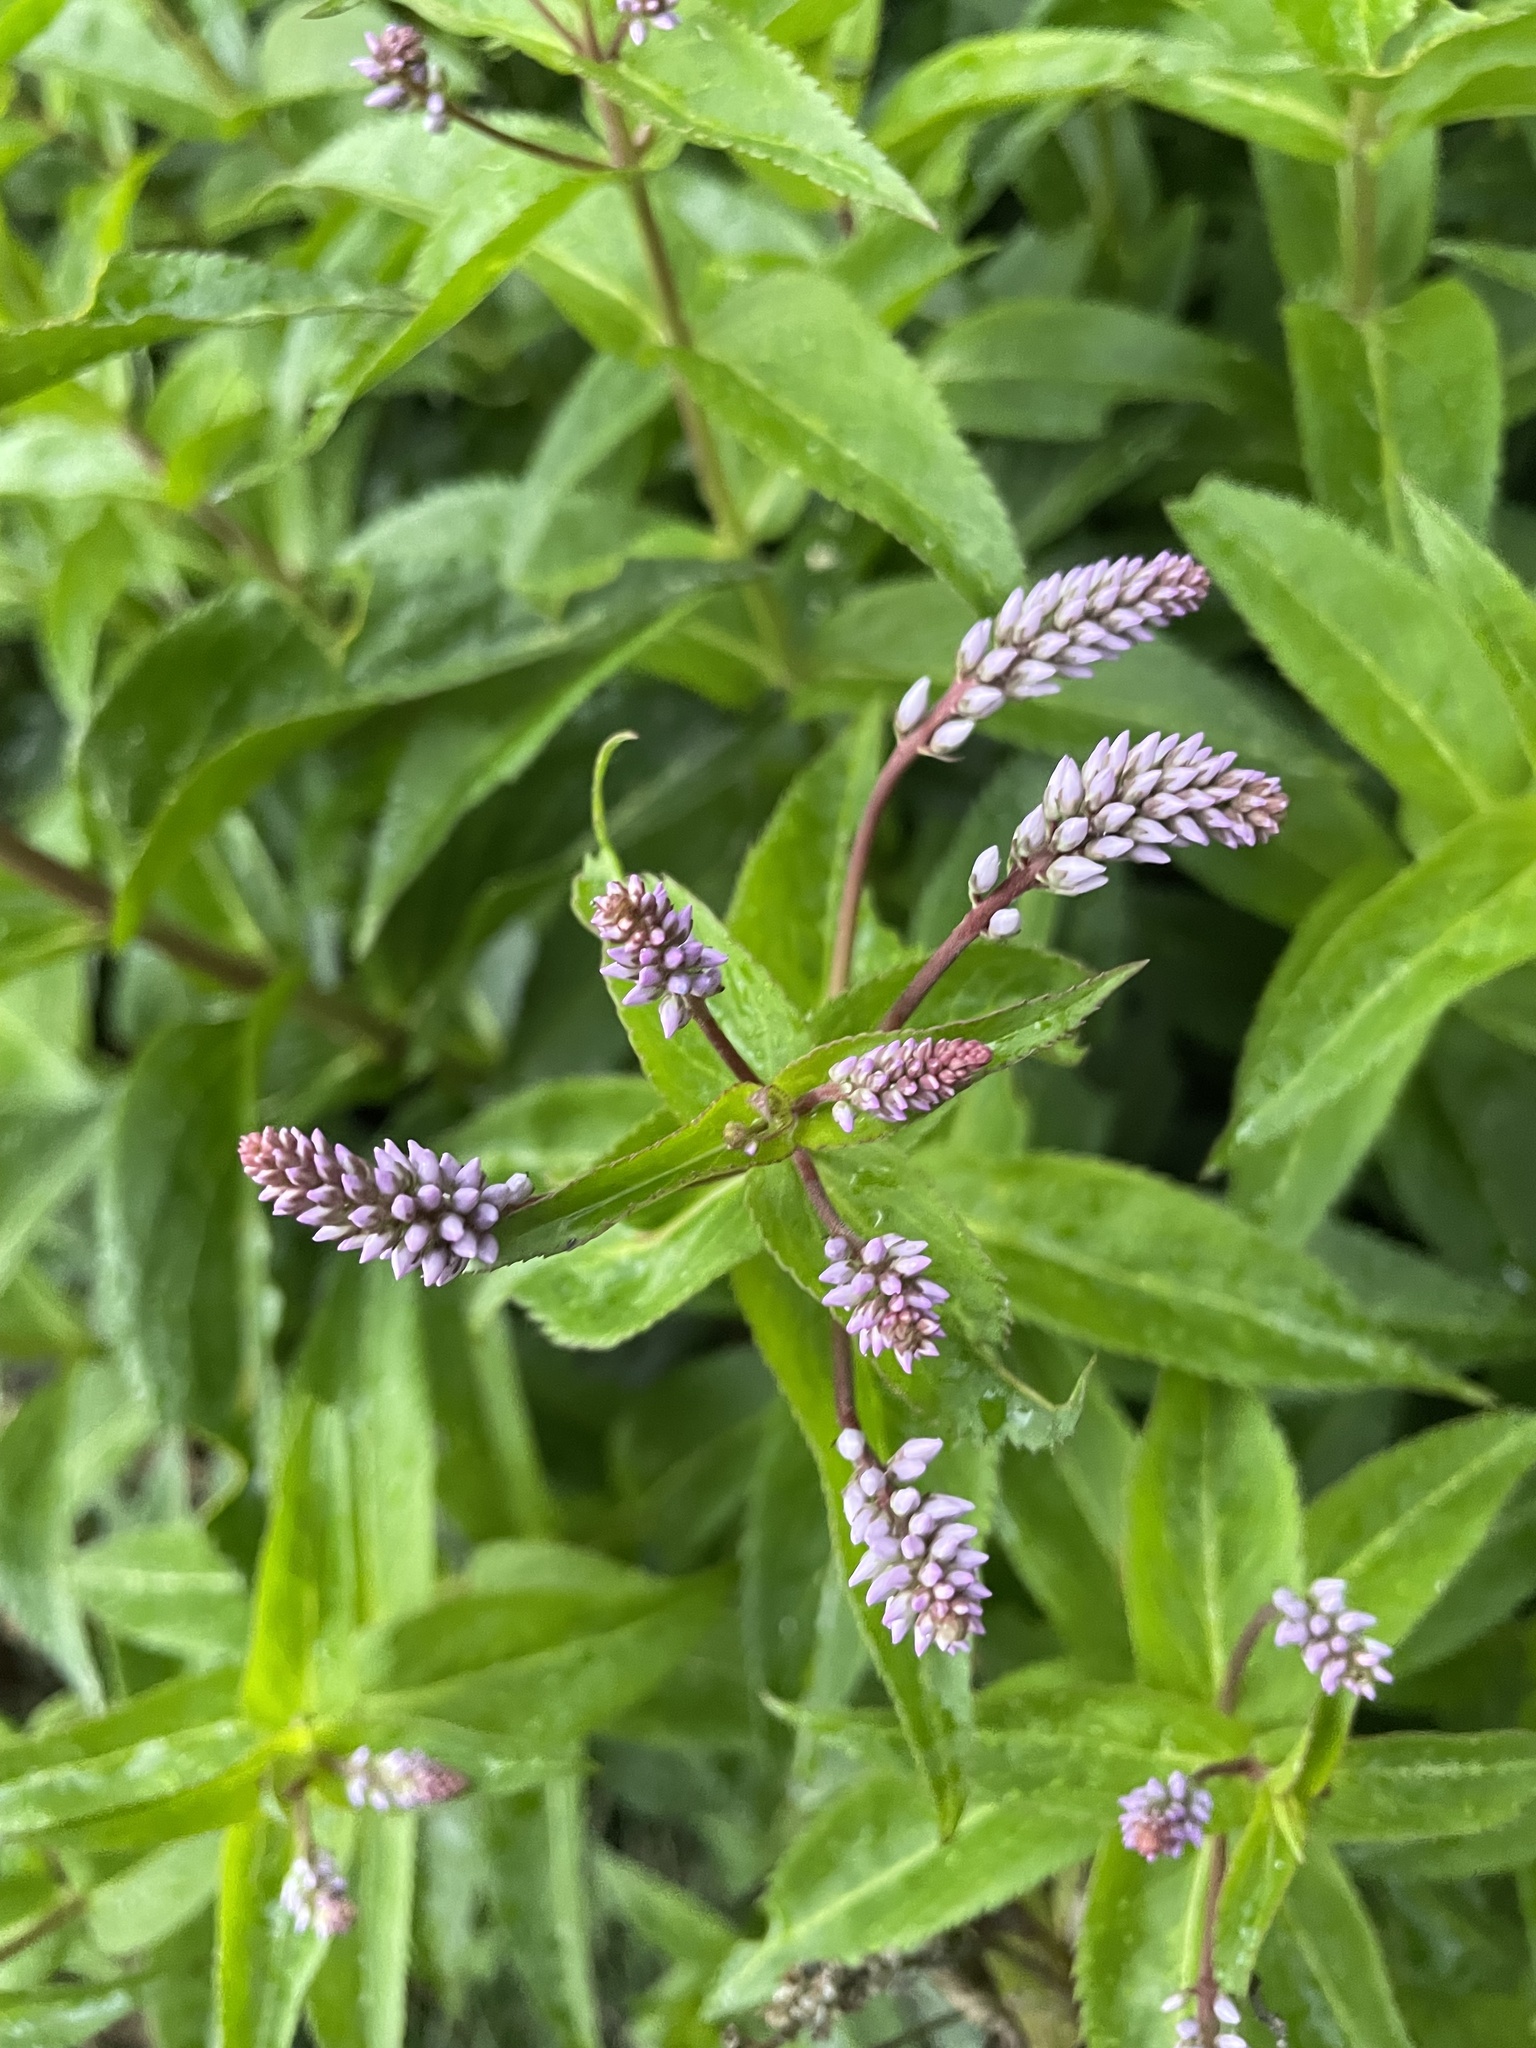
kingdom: Plantae
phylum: Tracheophyta
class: Magnoliopsida
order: Lamiales
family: Plantaginaceae
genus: Veronica
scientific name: Veronica derwentiana
